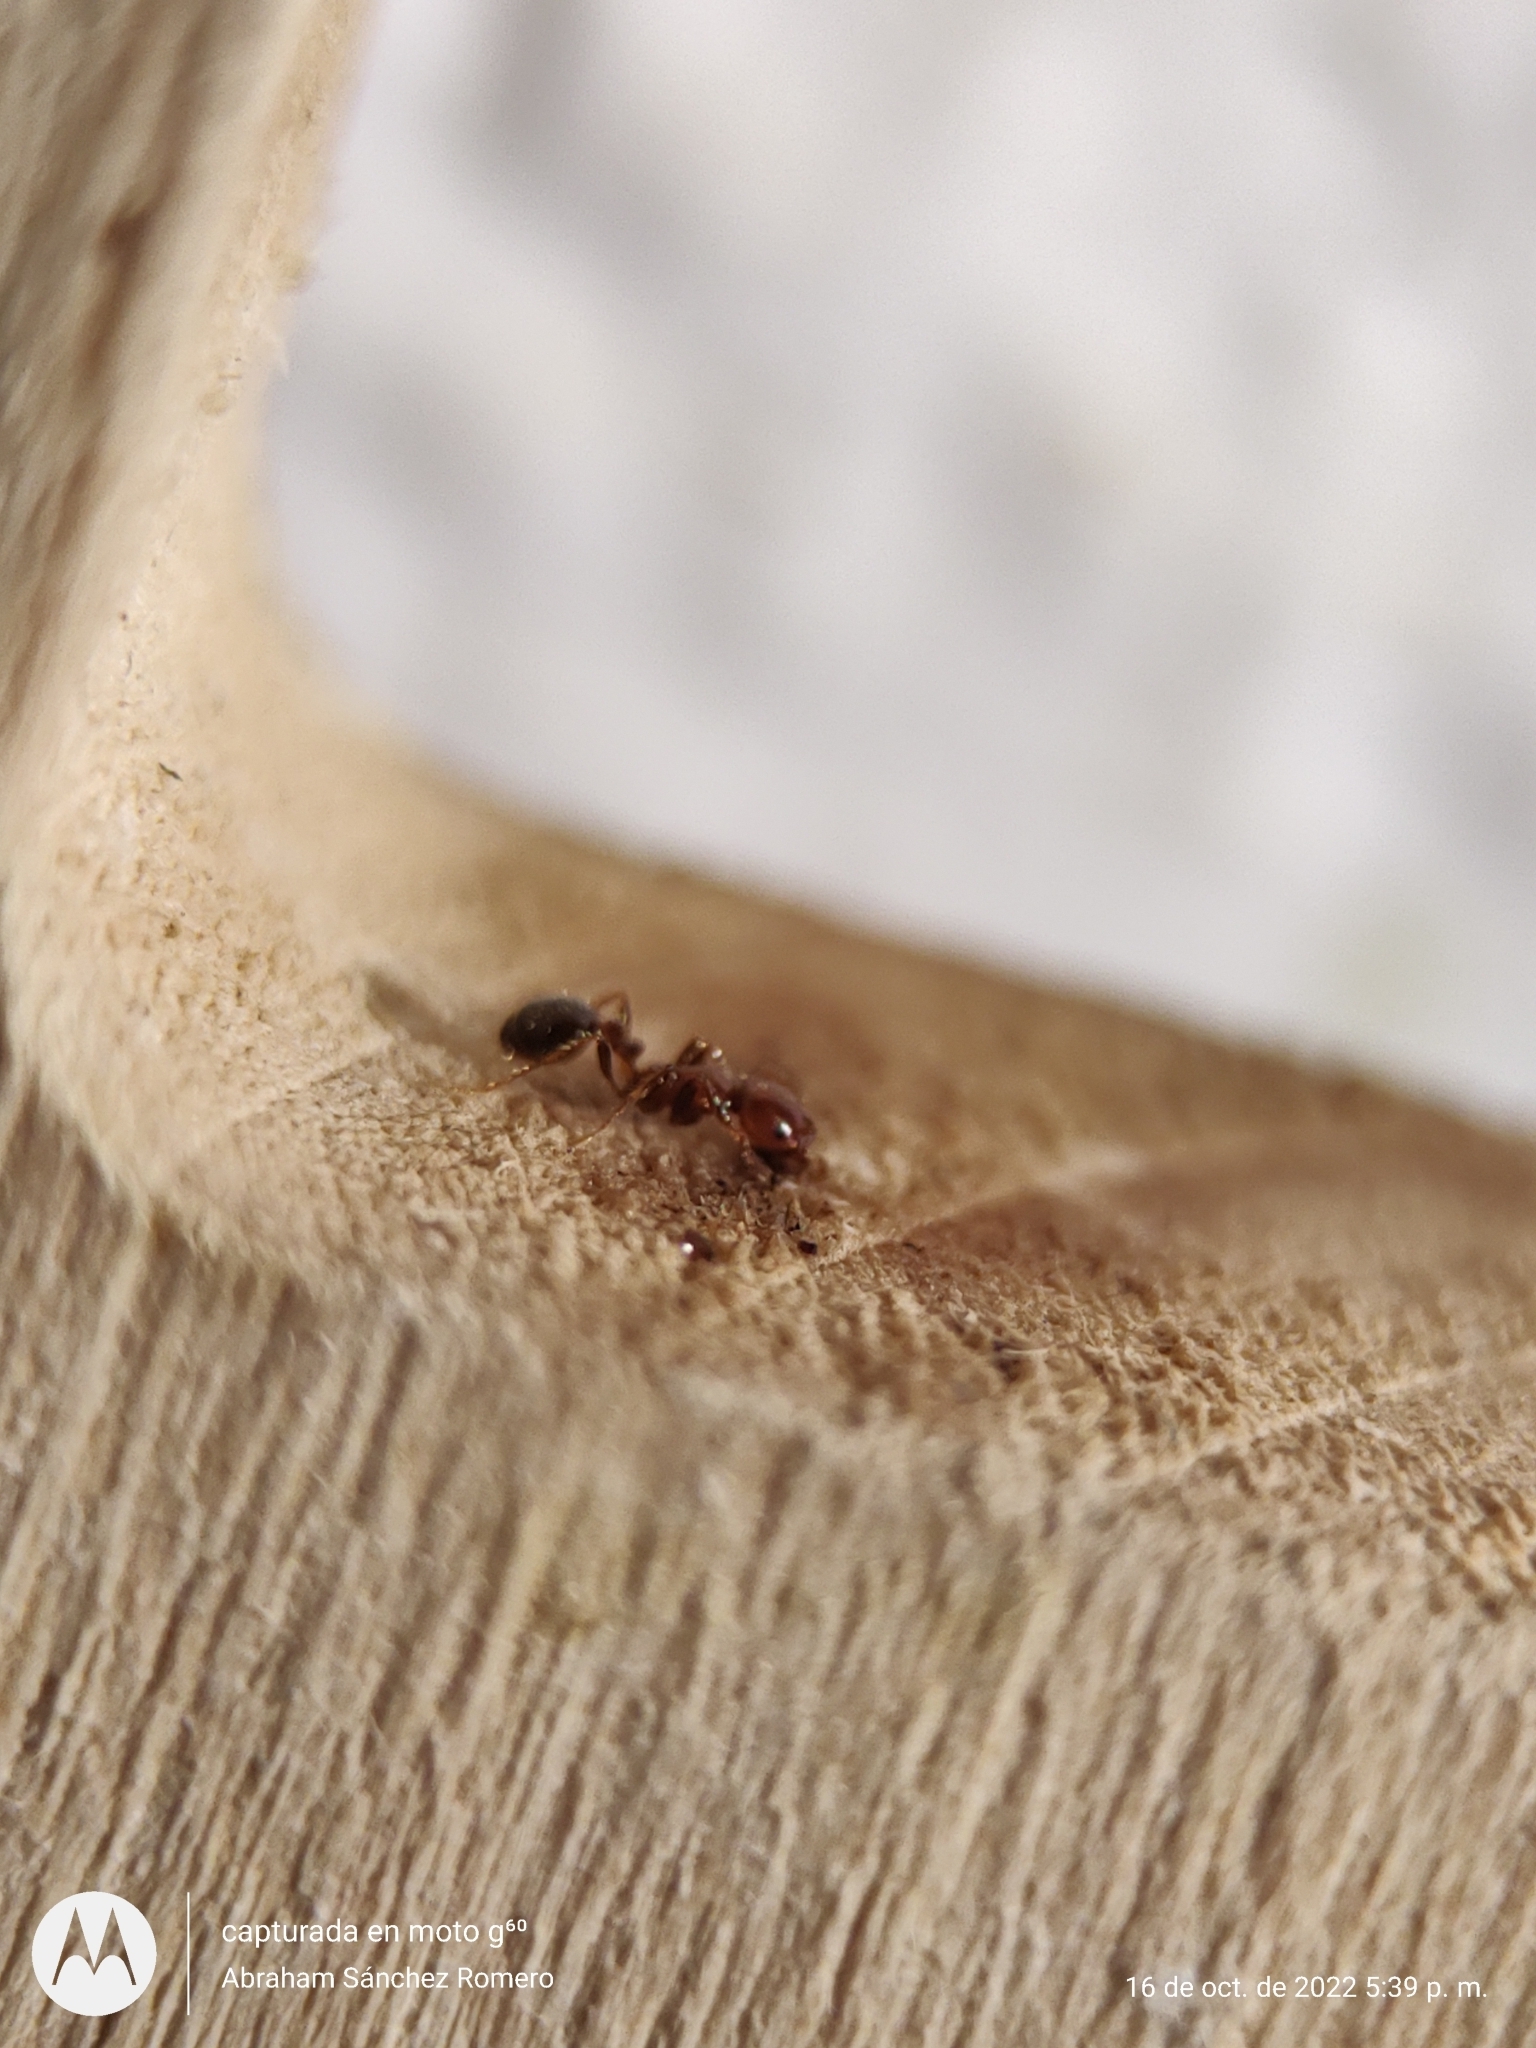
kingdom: Animalia
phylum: Arthropoda
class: Insecta
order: Hymenoptera
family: Formicidae
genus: Solenopsis
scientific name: Solenopsis xyloni
